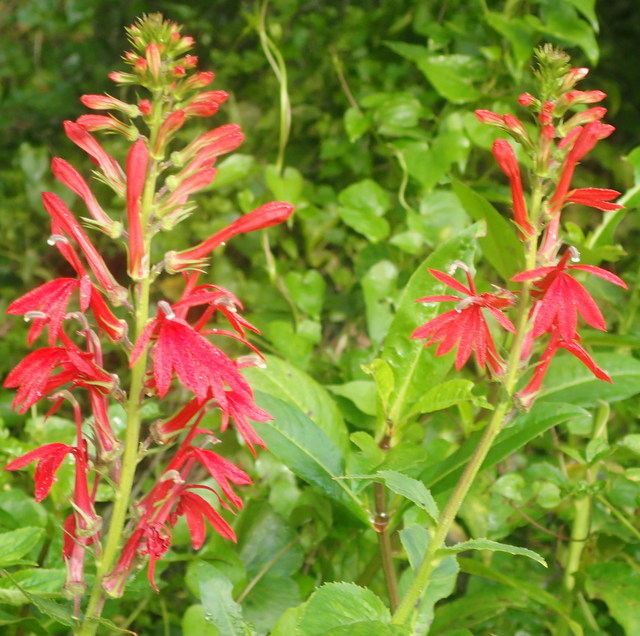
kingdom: Plantae
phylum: Tracheophyta
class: Magnoliopsida
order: Asterales
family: Campanulaceae
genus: Lobelia
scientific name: Lobelia cardinalis
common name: Cardinal flower
